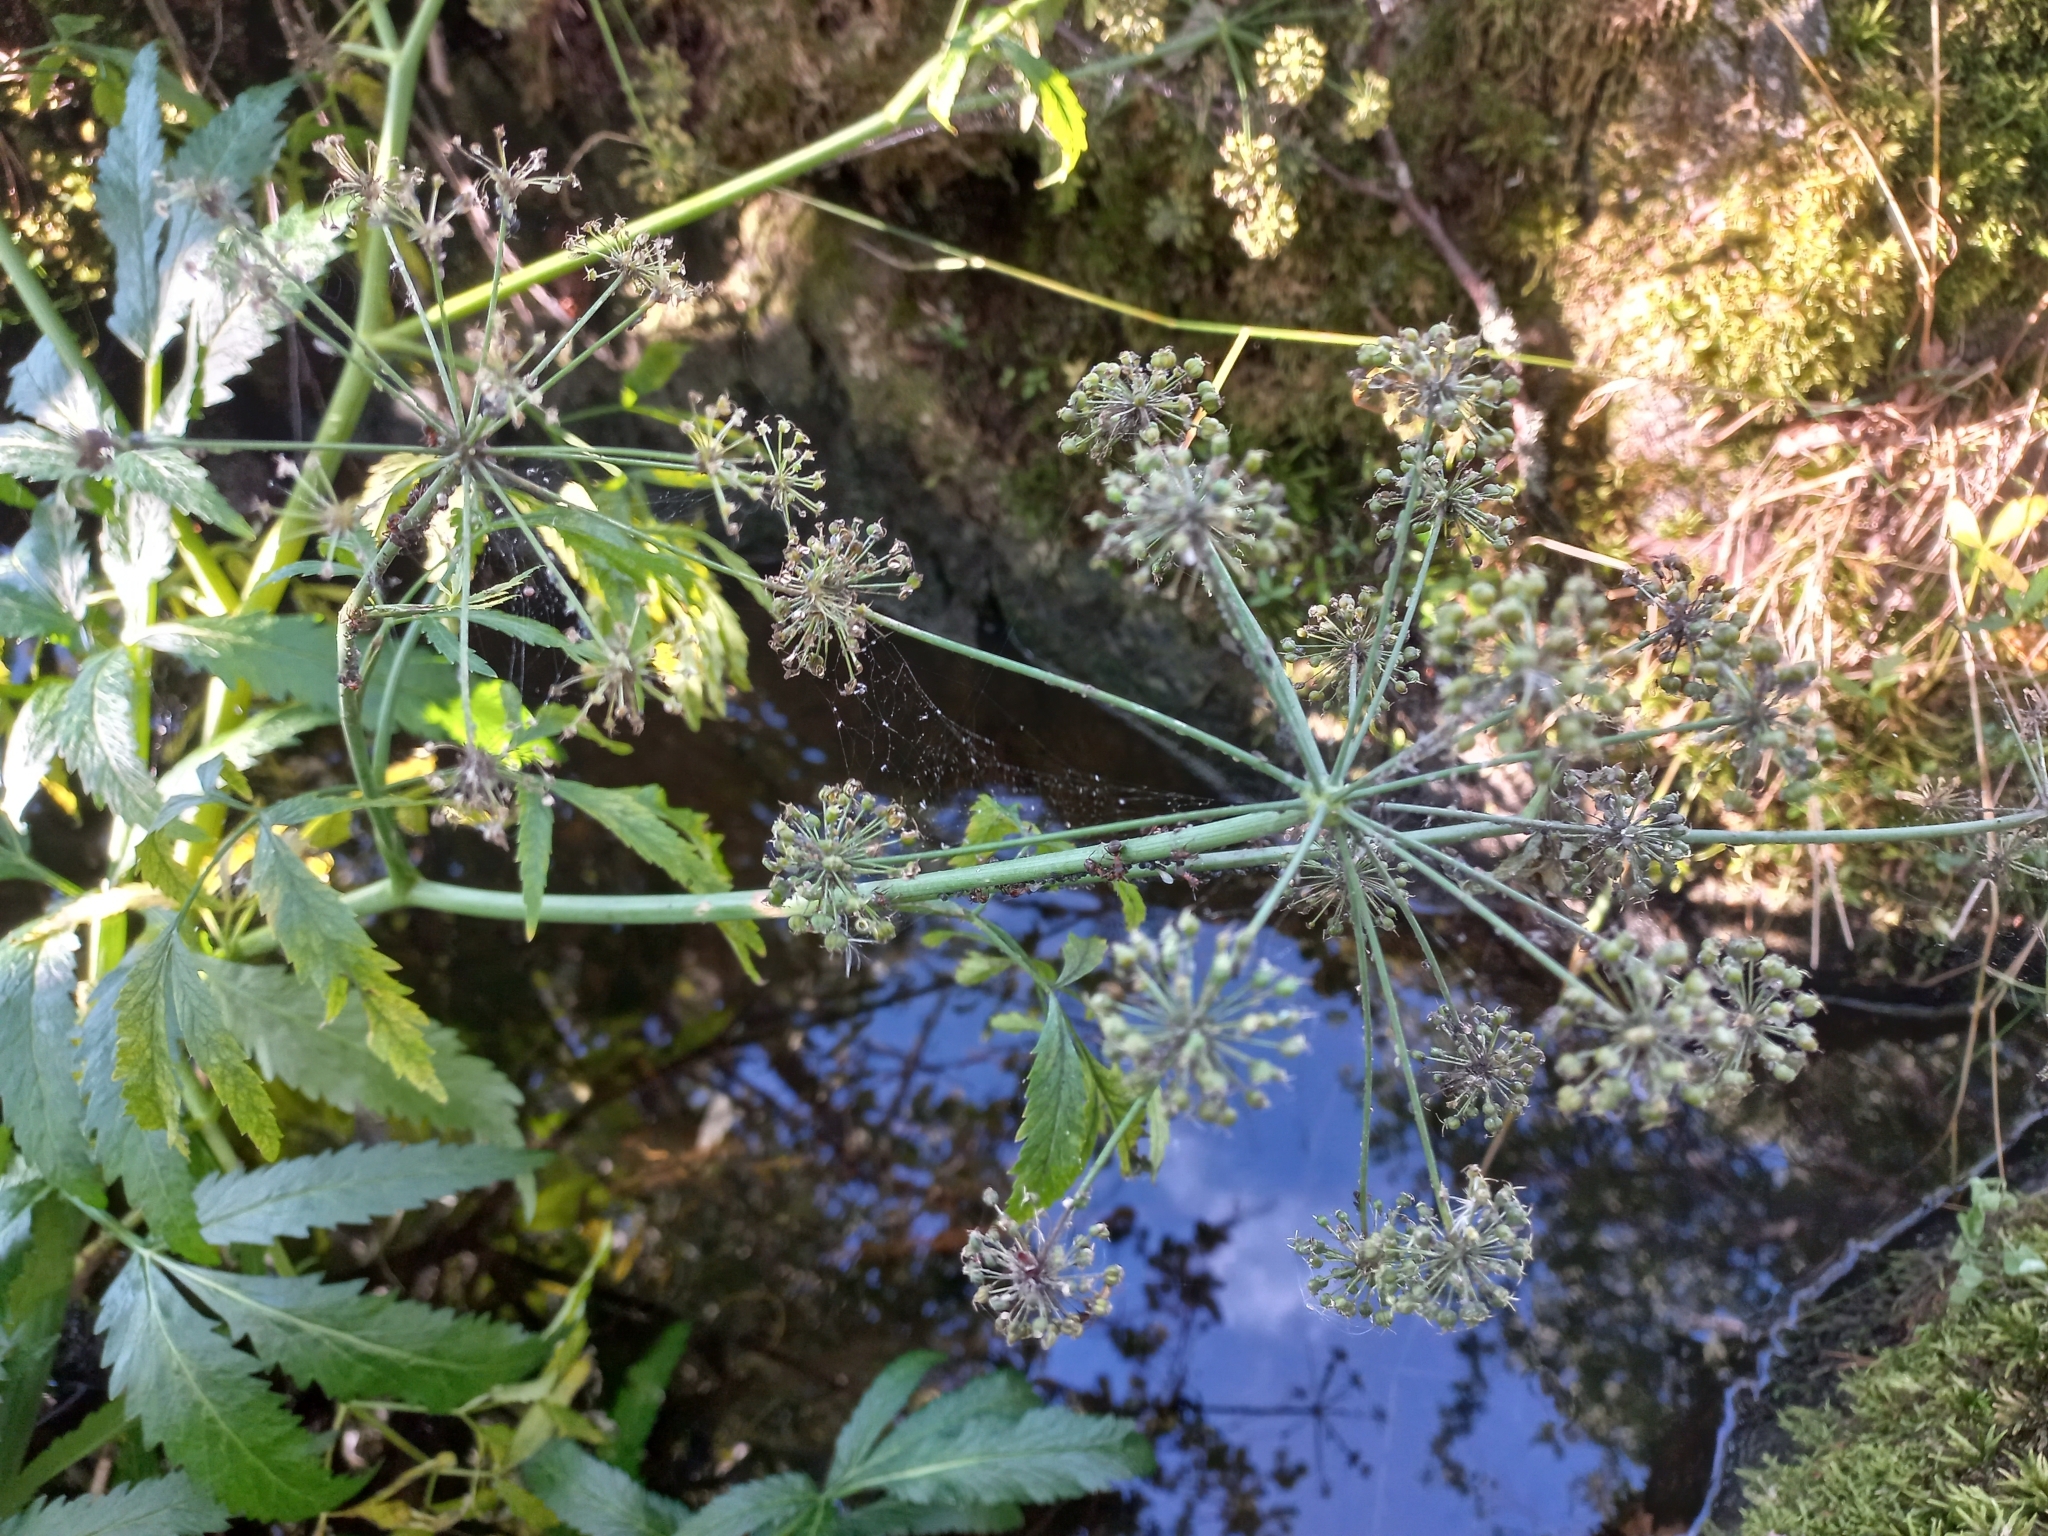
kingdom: Plantae
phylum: Tracheophyta
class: Magnoliopsida
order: Apiales
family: Apiaceae
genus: Cicuta
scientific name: Cicuta virosa
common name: Cowbane
